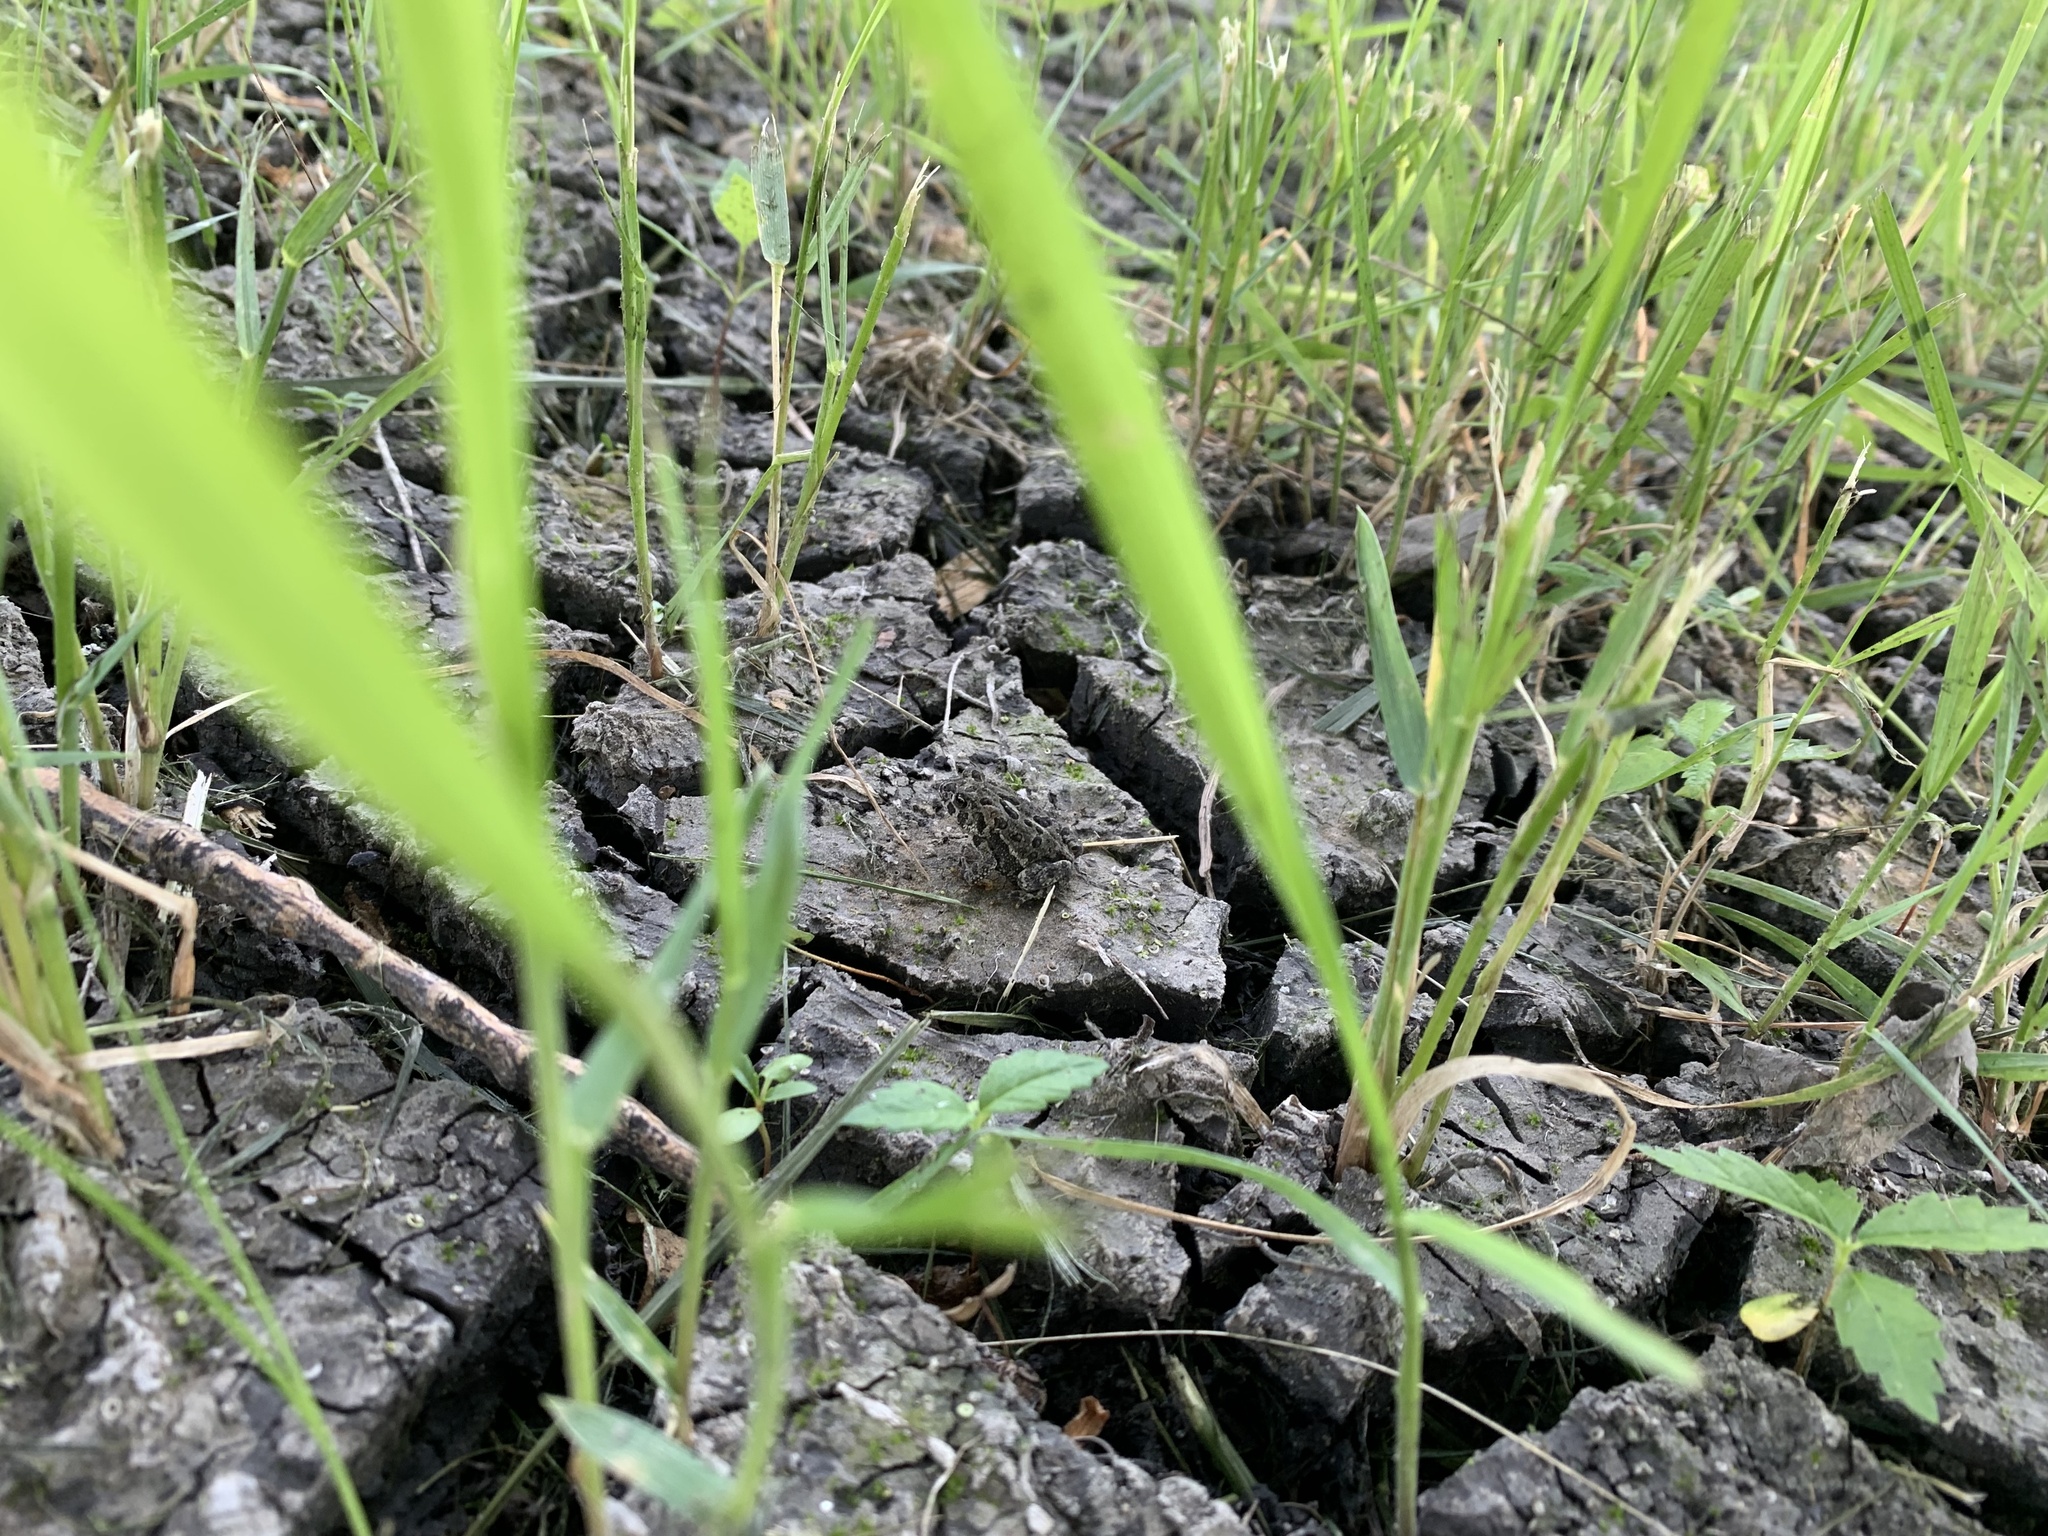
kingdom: Animalia
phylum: Chordata
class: Amphibia
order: Anura
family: Bufonidae
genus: Anaxyrus
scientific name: Anaxyrus hemiophrys
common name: Canadian toad
